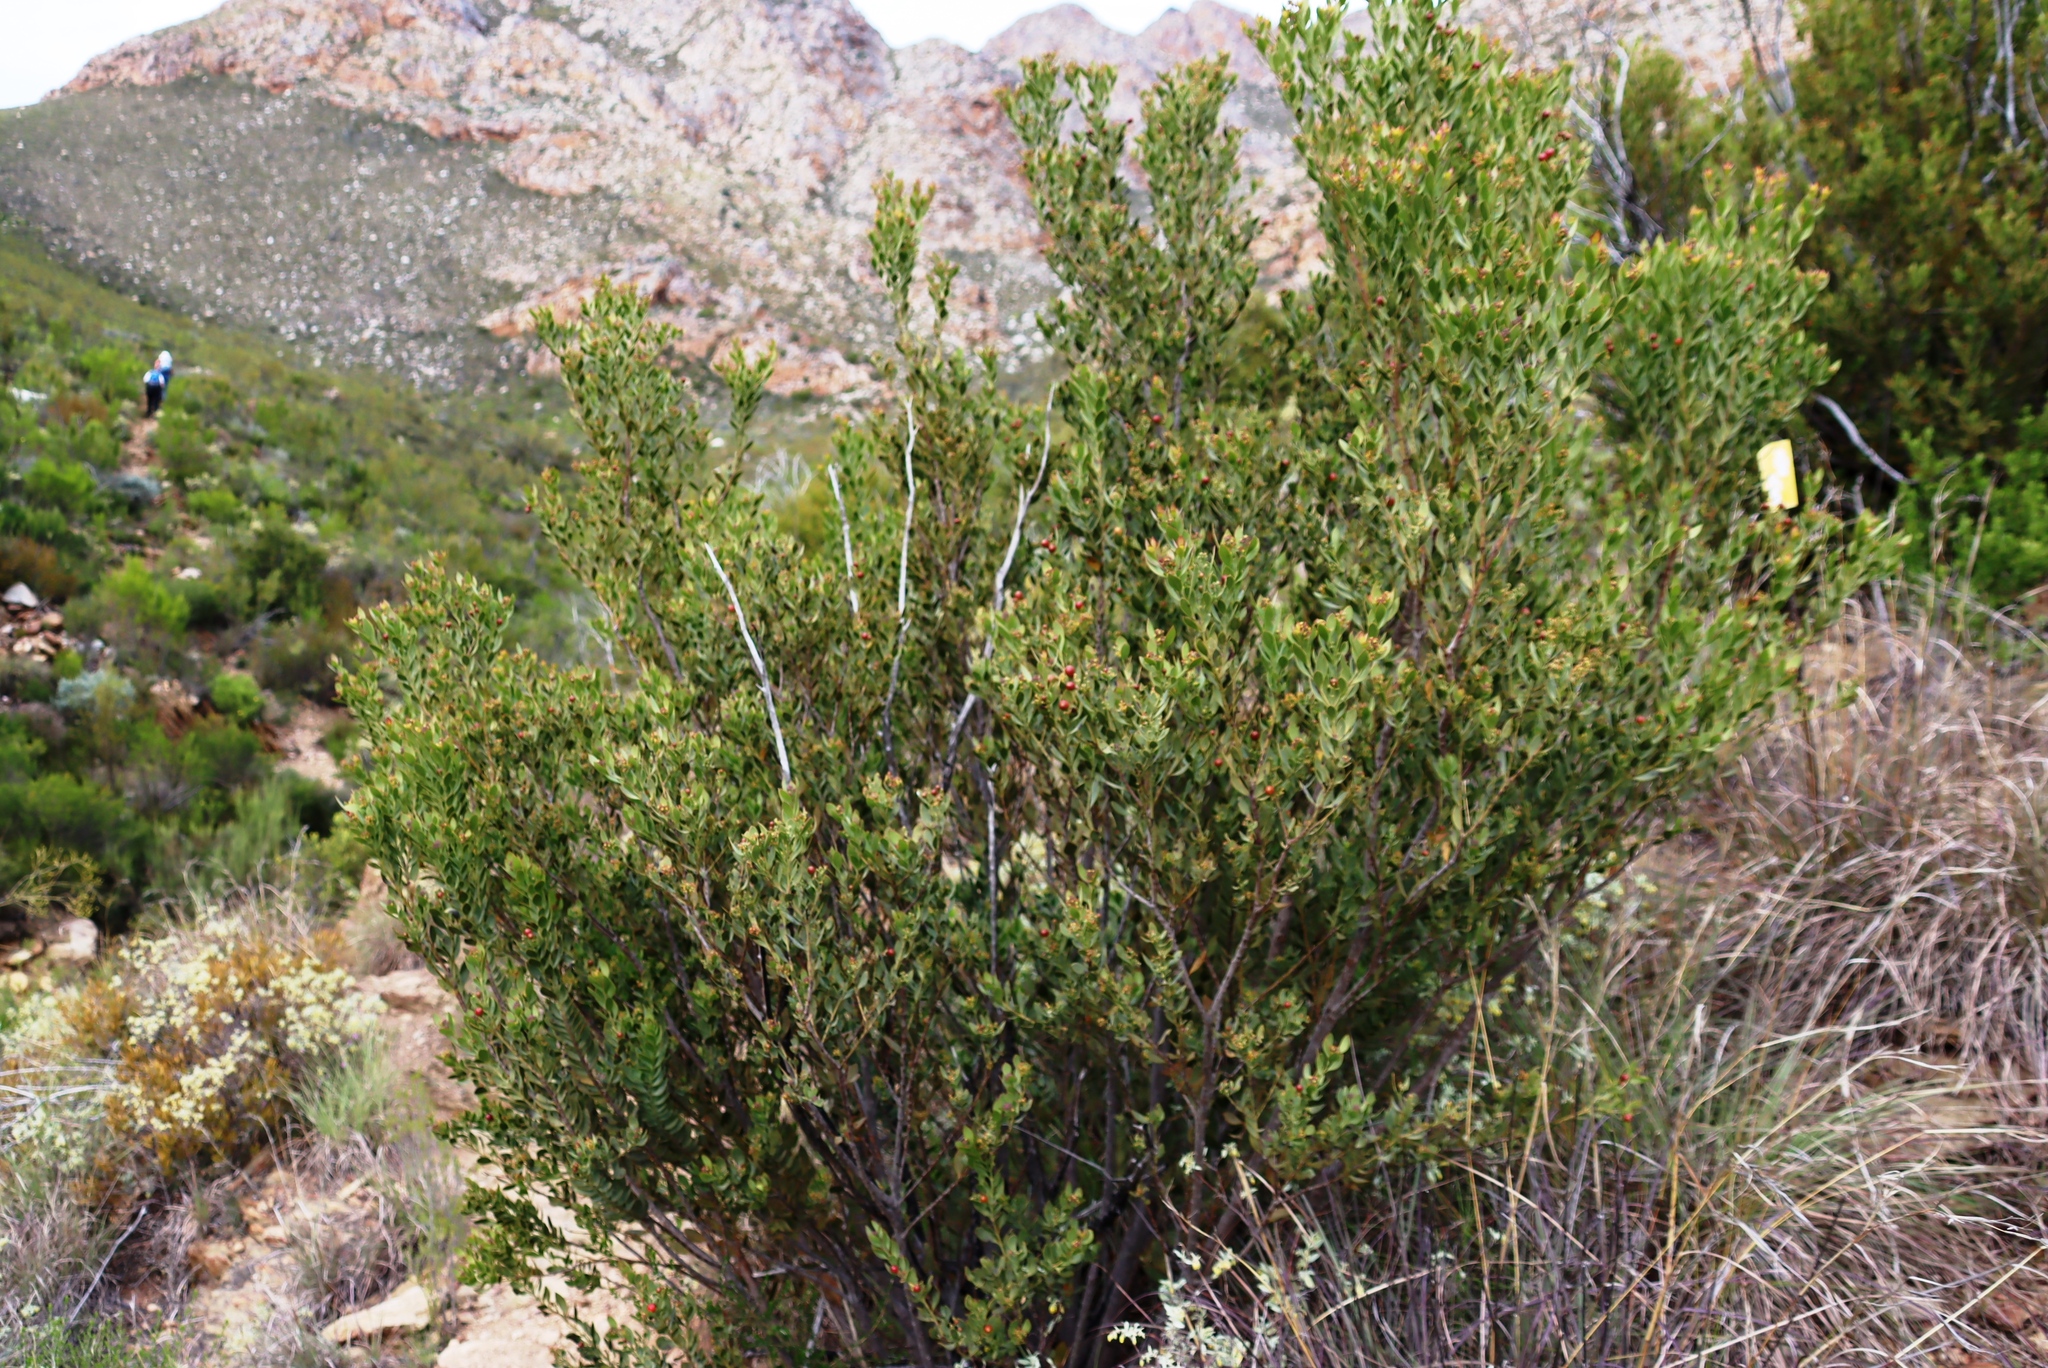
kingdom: Plantae
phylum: Tracheophyta
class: Magnoliopsida
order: Santalales
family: Santalaceae
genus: Osyris
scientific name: Osyris compressa
